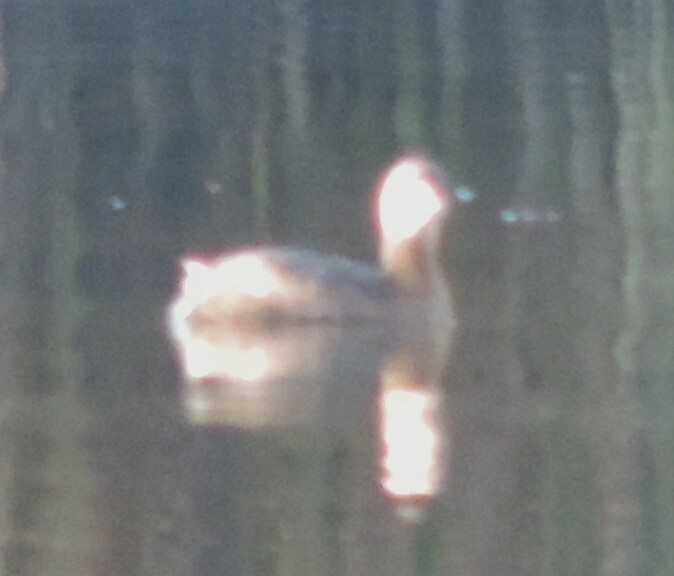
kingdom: Animalia
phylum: Chordata
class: Aves
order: Podicipediformes
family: Podicipedidae
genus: Podilymbus
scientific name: Podilymbus podiceps
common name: Pied-billed grebe
